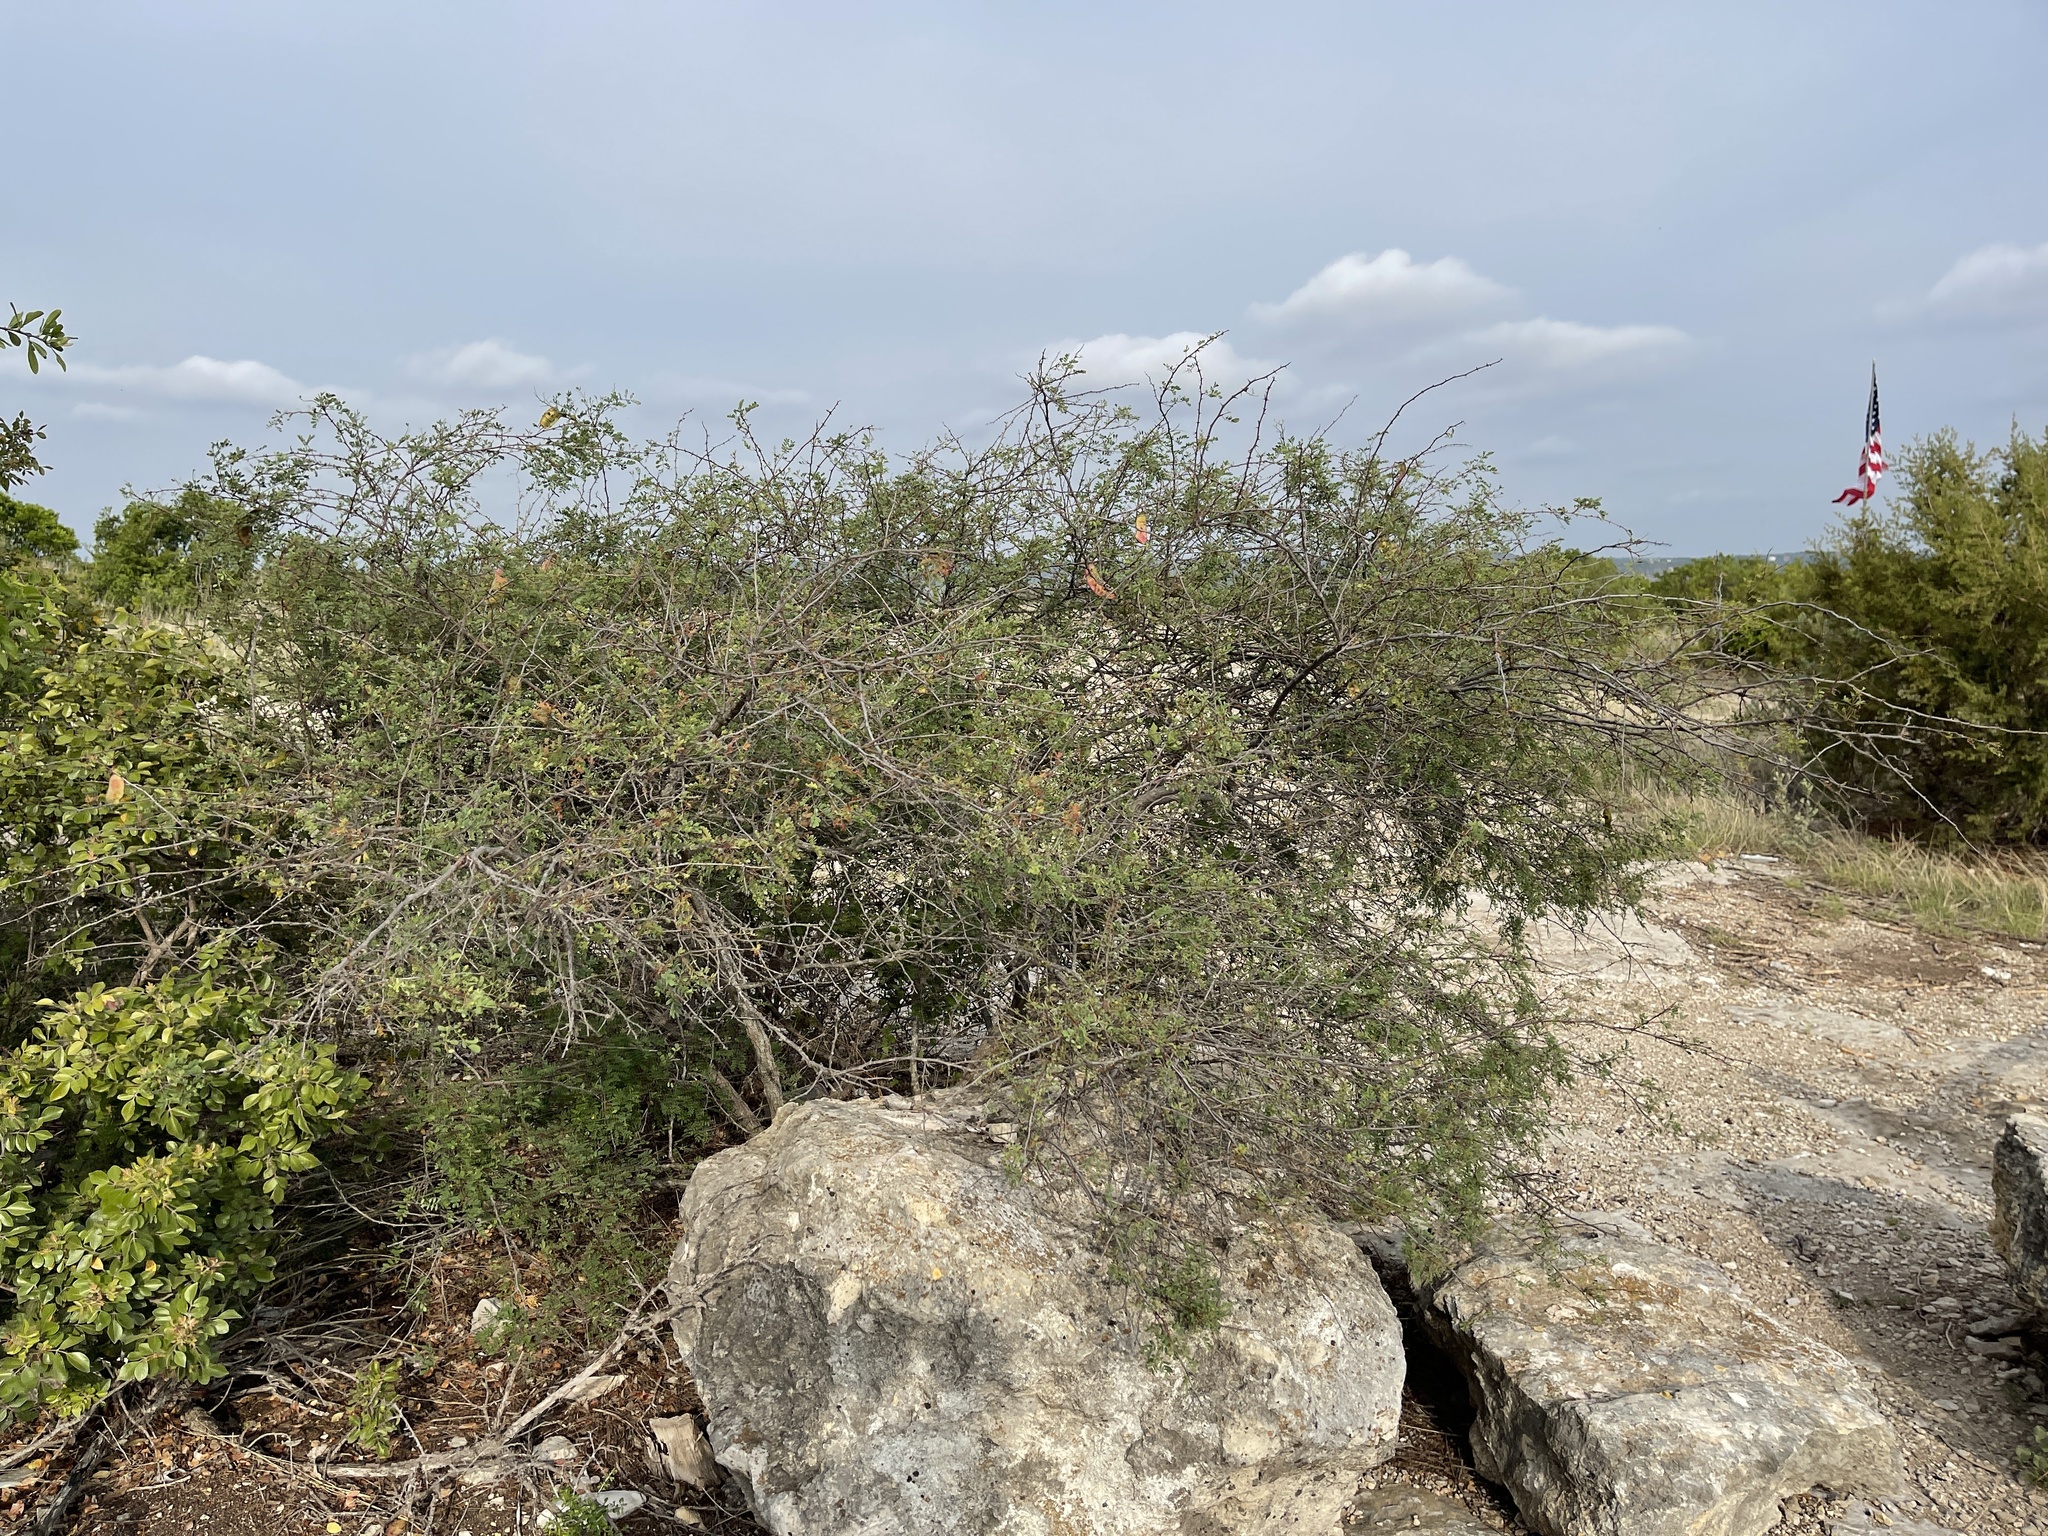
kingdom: Plantae
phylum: Tracheophyta
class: Magnoliopsida
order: Fabales
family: Fabaceae
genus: Senegalia
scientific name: Senegalia roemeriana
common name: Roemer's acacia
